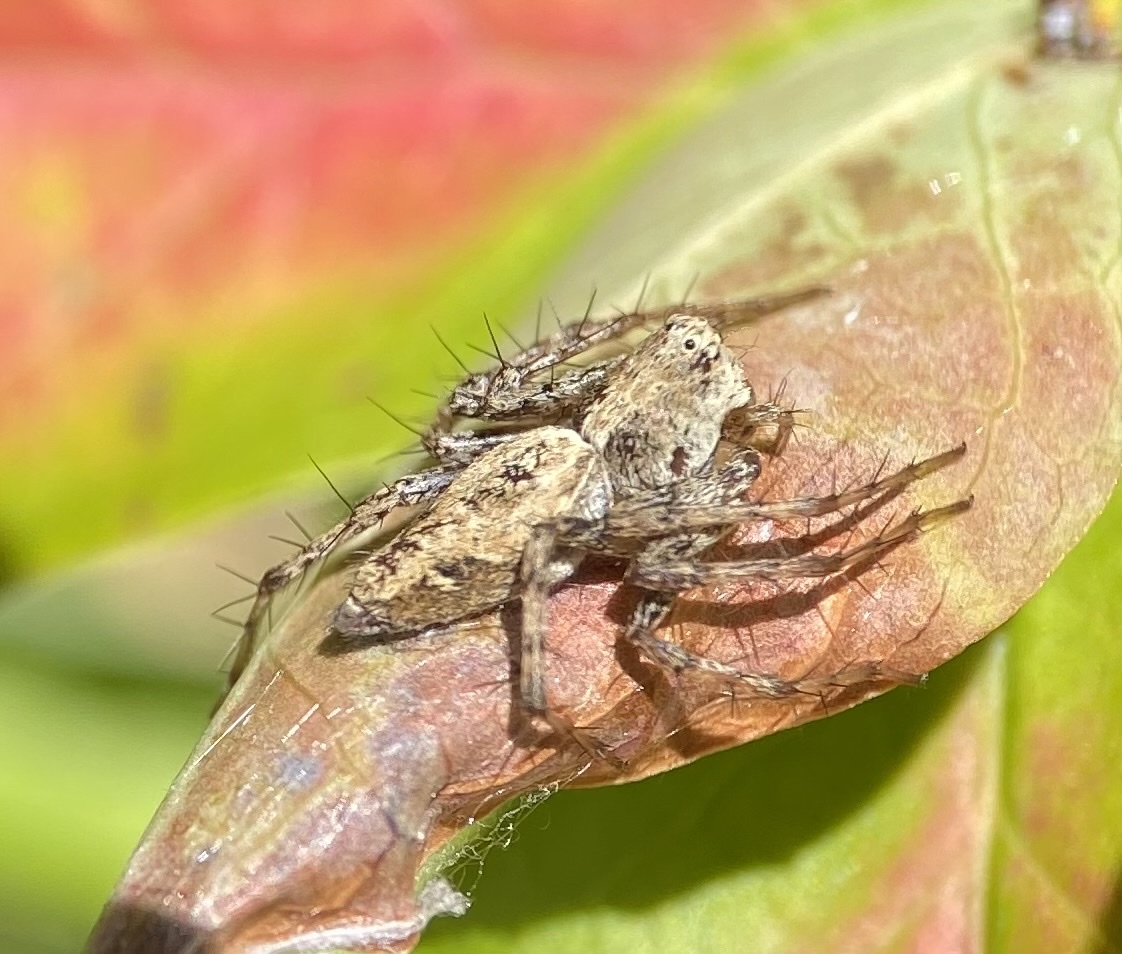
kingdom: Animalia
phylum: Arthropoda
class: Arachnida
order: Araneae
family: Oxyopidae
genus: Oxyopes
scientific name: Oxyopes scalaris
